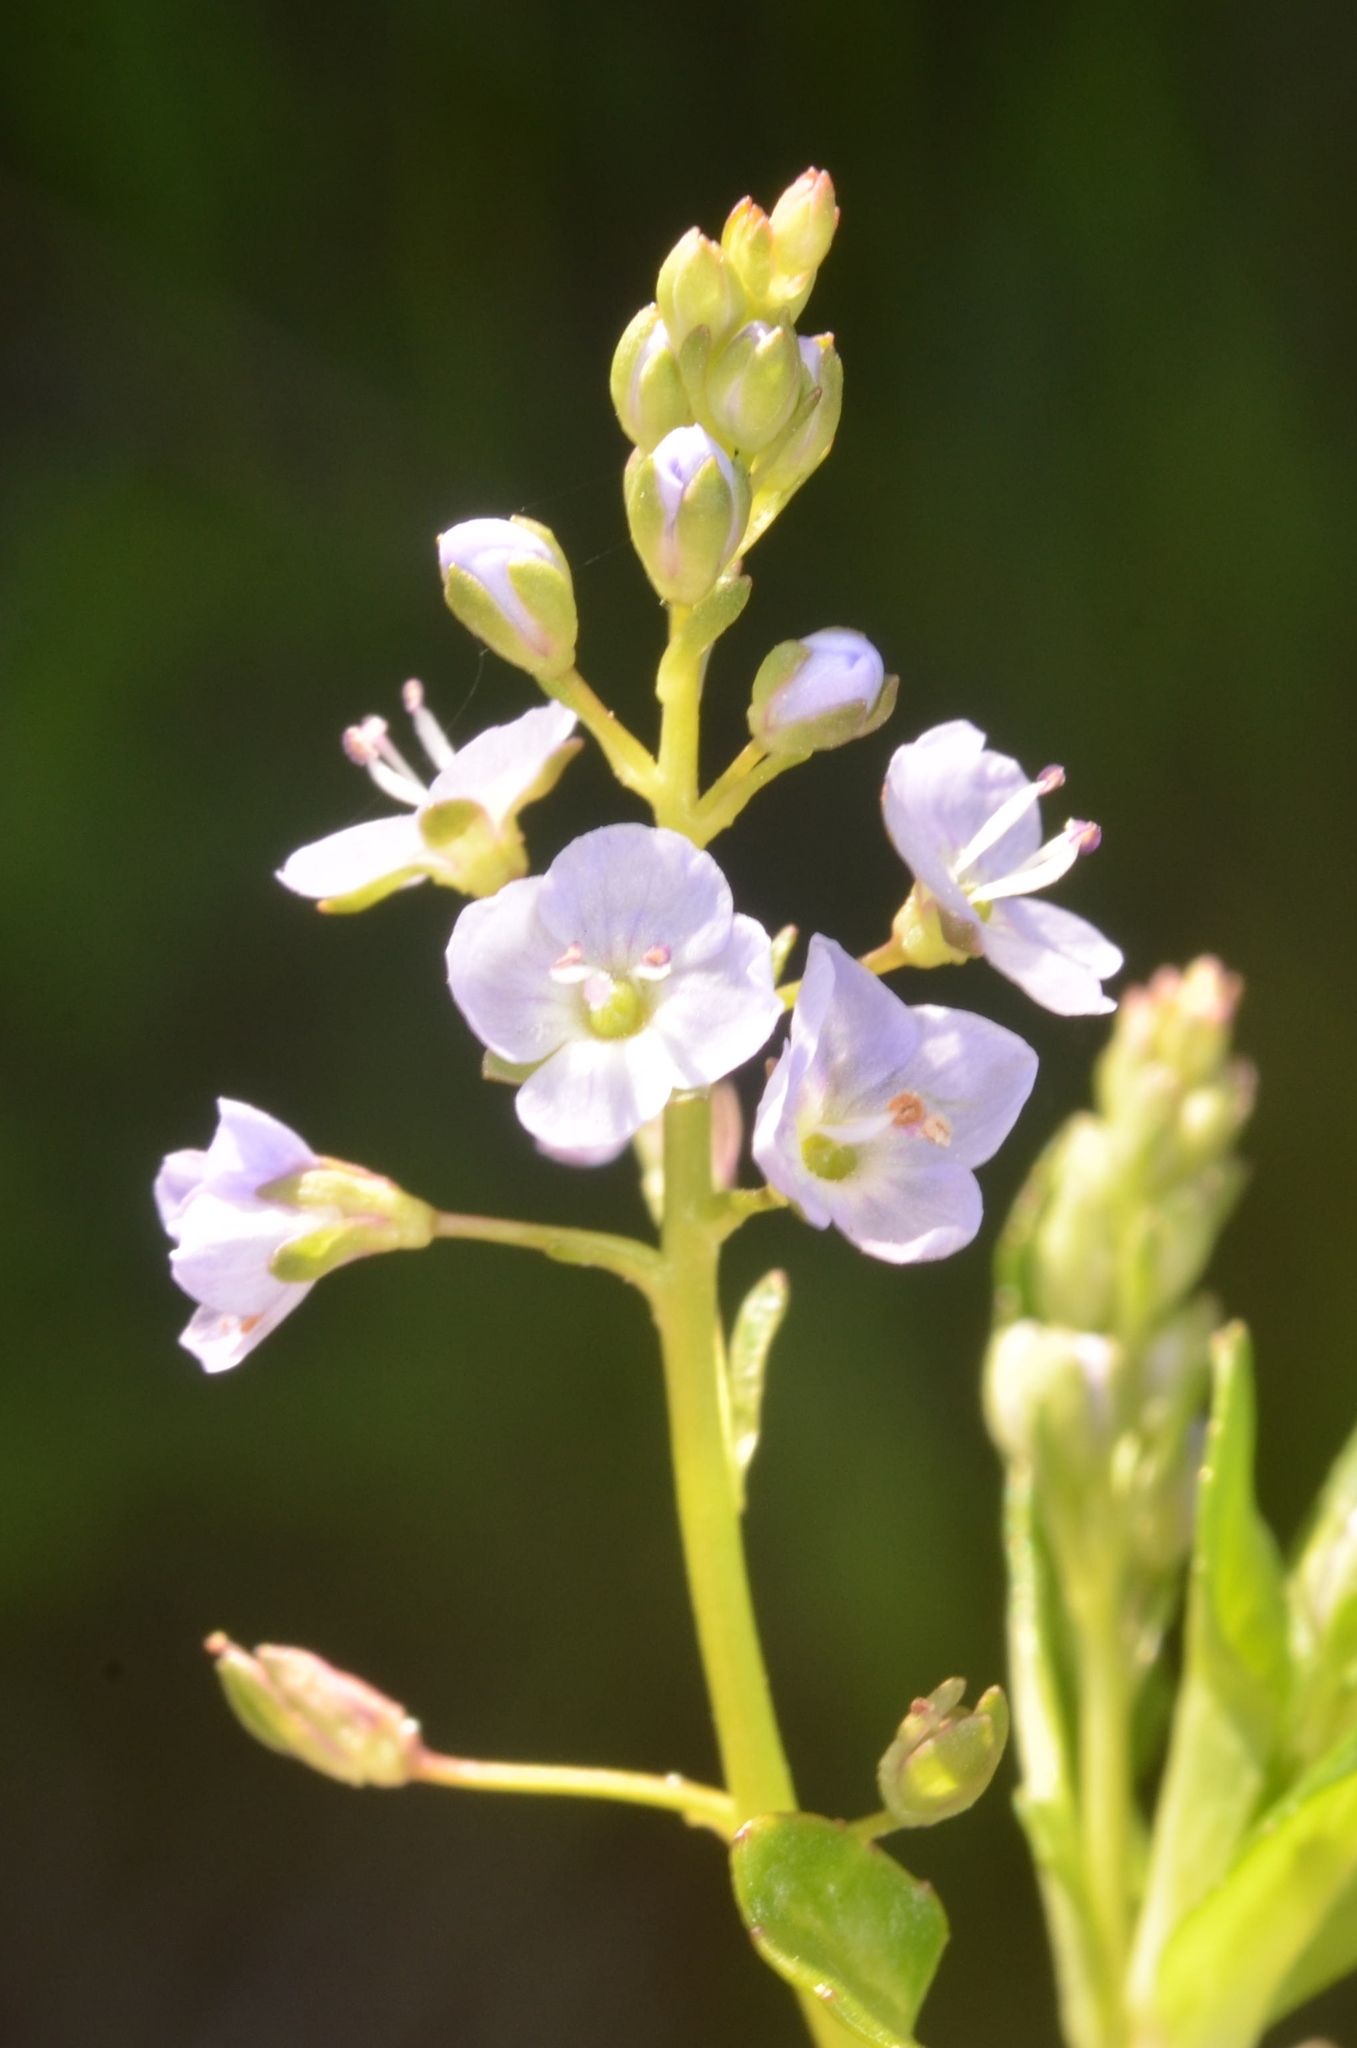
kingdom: Plantae
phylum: Tracheophyta
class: Magnoliopsida
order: Lamiales
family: Plantaginaceae
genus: Veronica
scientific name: Veronica beccabunga
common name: Brooklime
